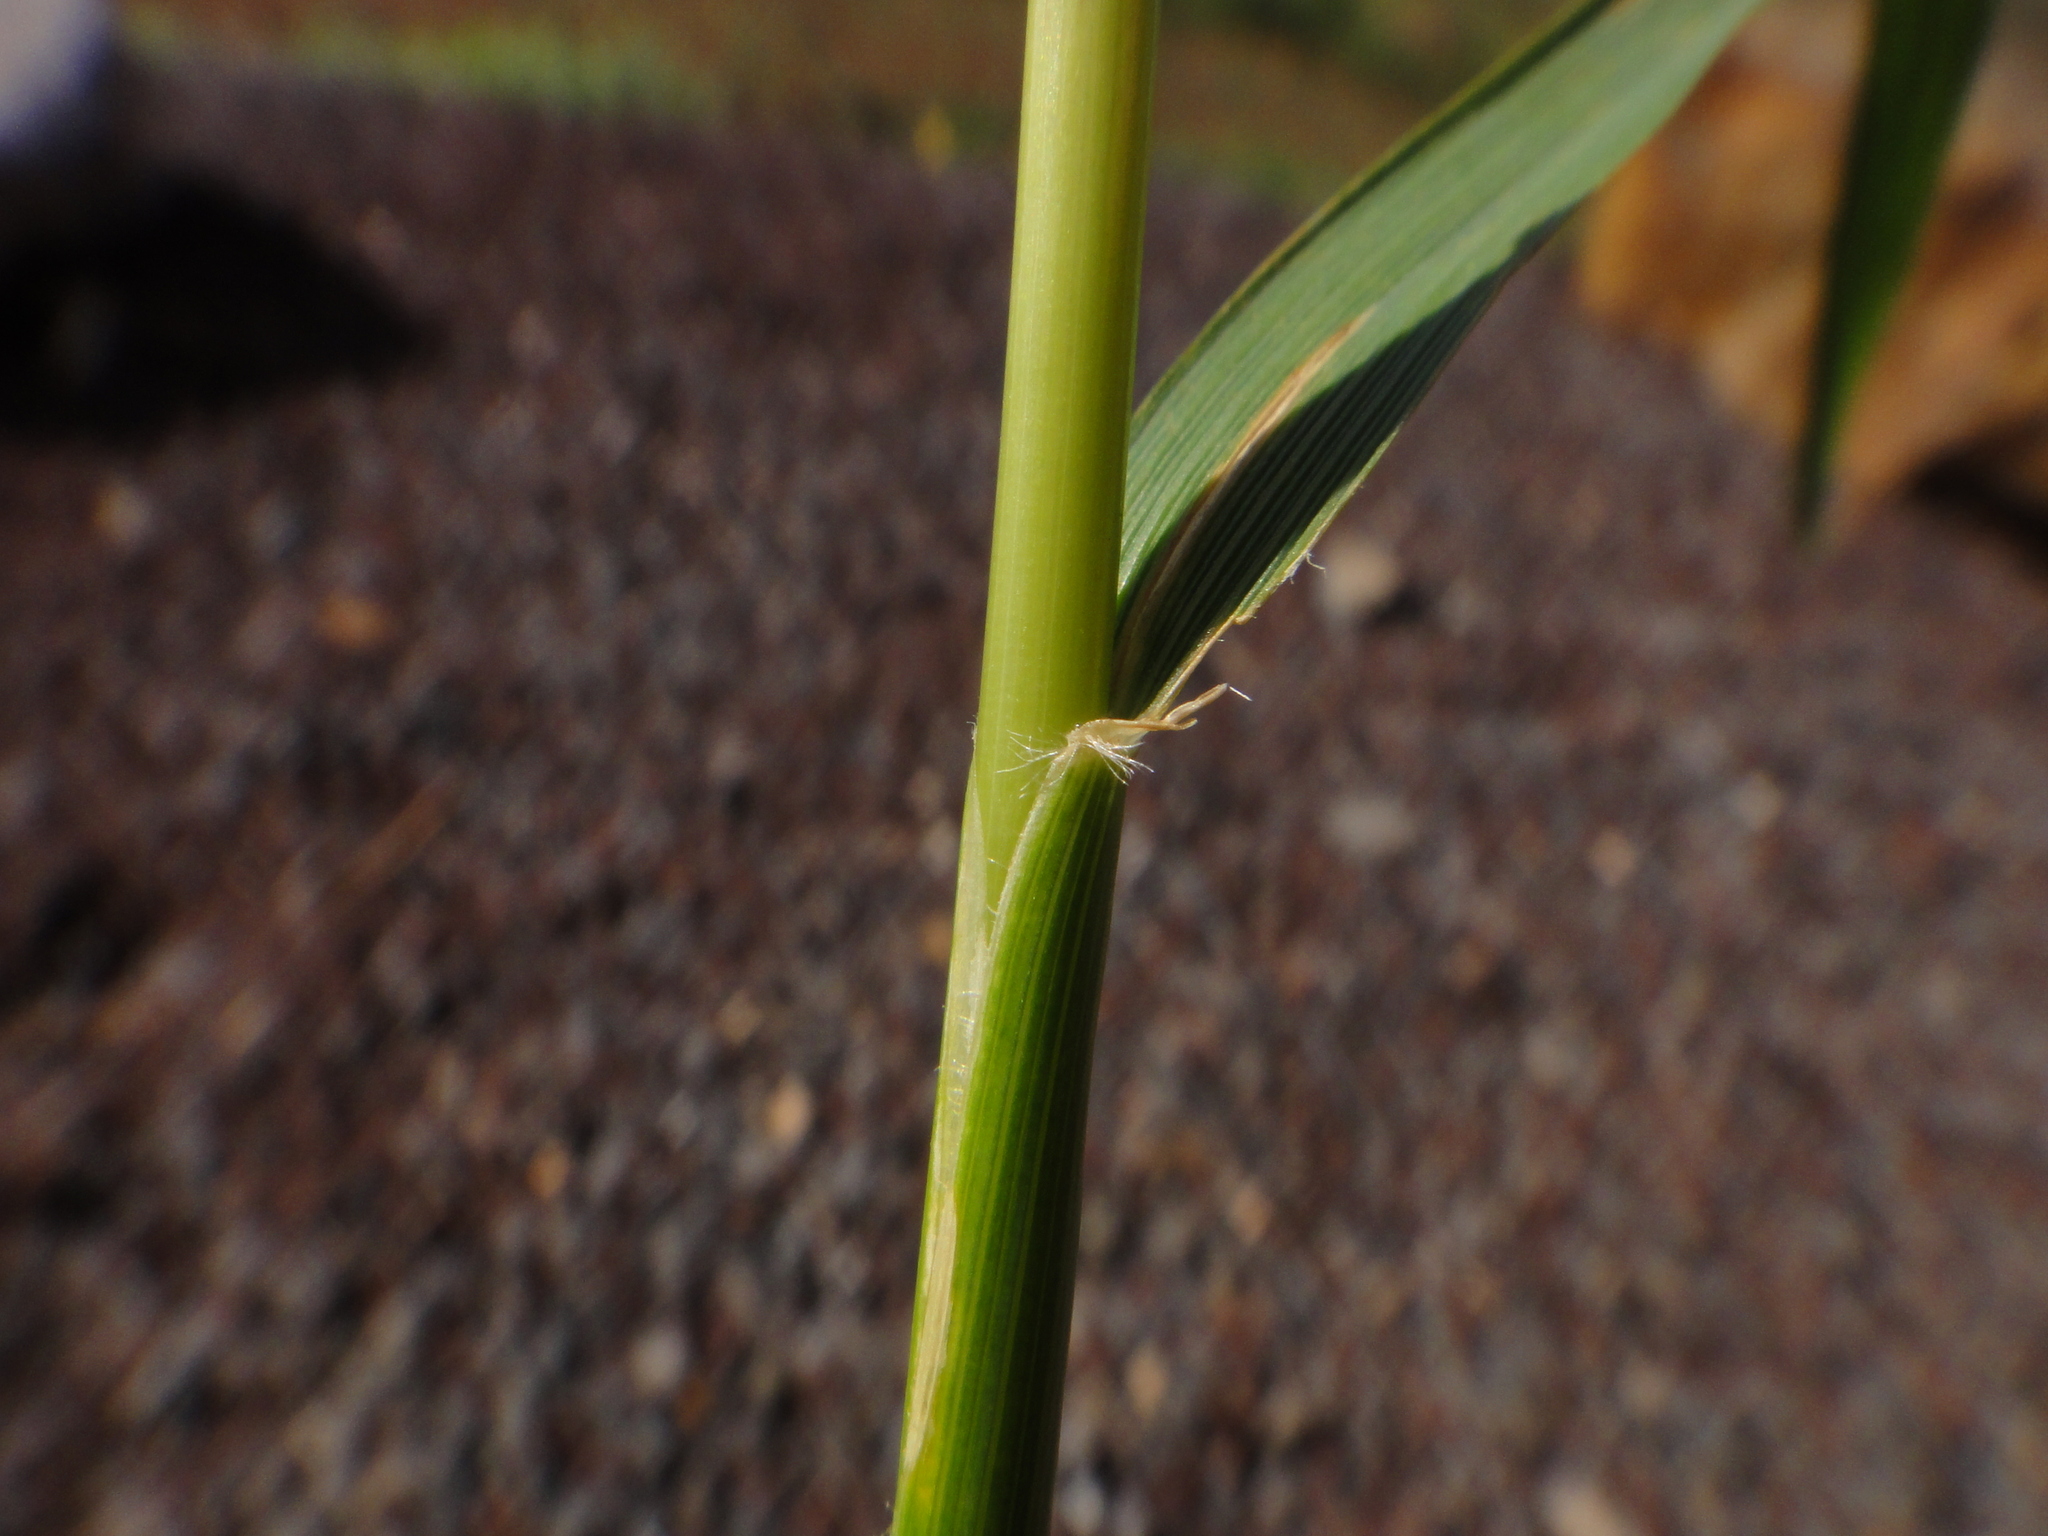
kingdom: Plantae
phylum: Tracheophyta
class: Liliopsida
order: Poales
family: Poaceae
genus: Stipellula
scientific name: Stipellula capensis
